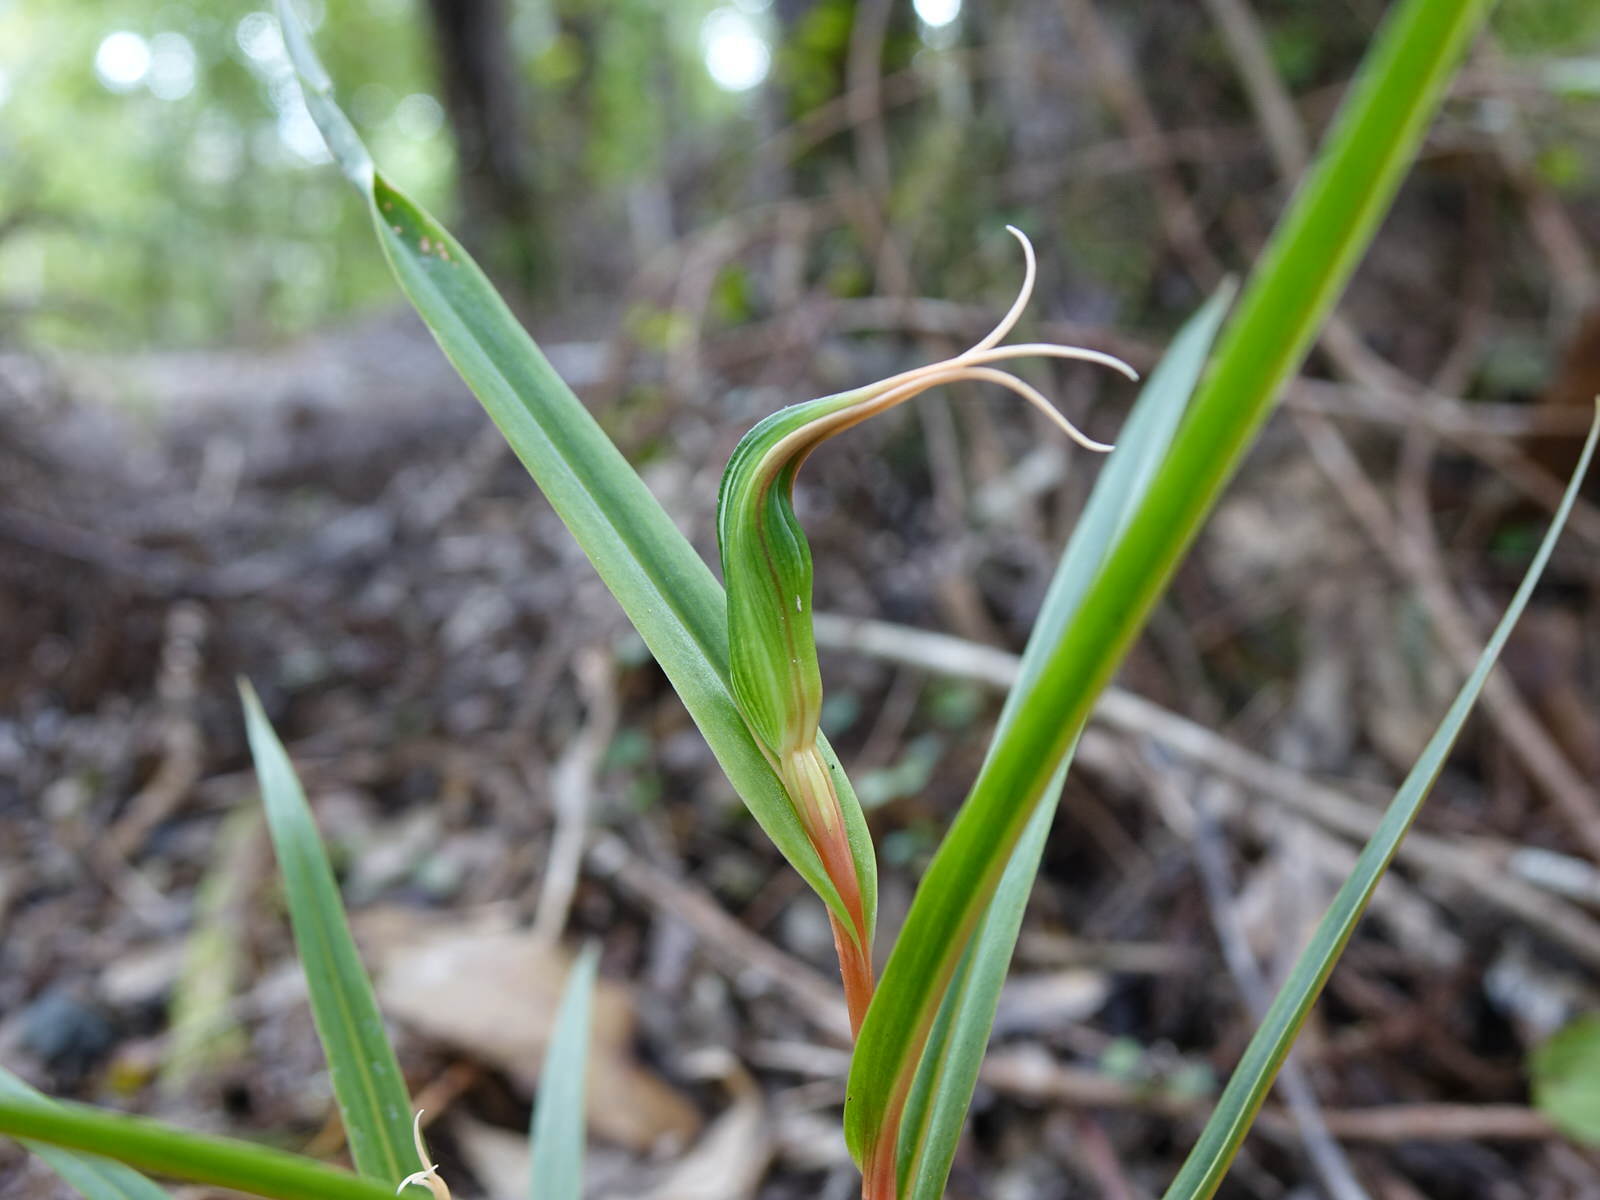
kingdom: Plantae
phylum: Tracheophyta
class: Liliopsida
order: Asparagales
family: Orchidaceae
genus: Pterostylis
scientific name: Pterostylis cardiostigma
